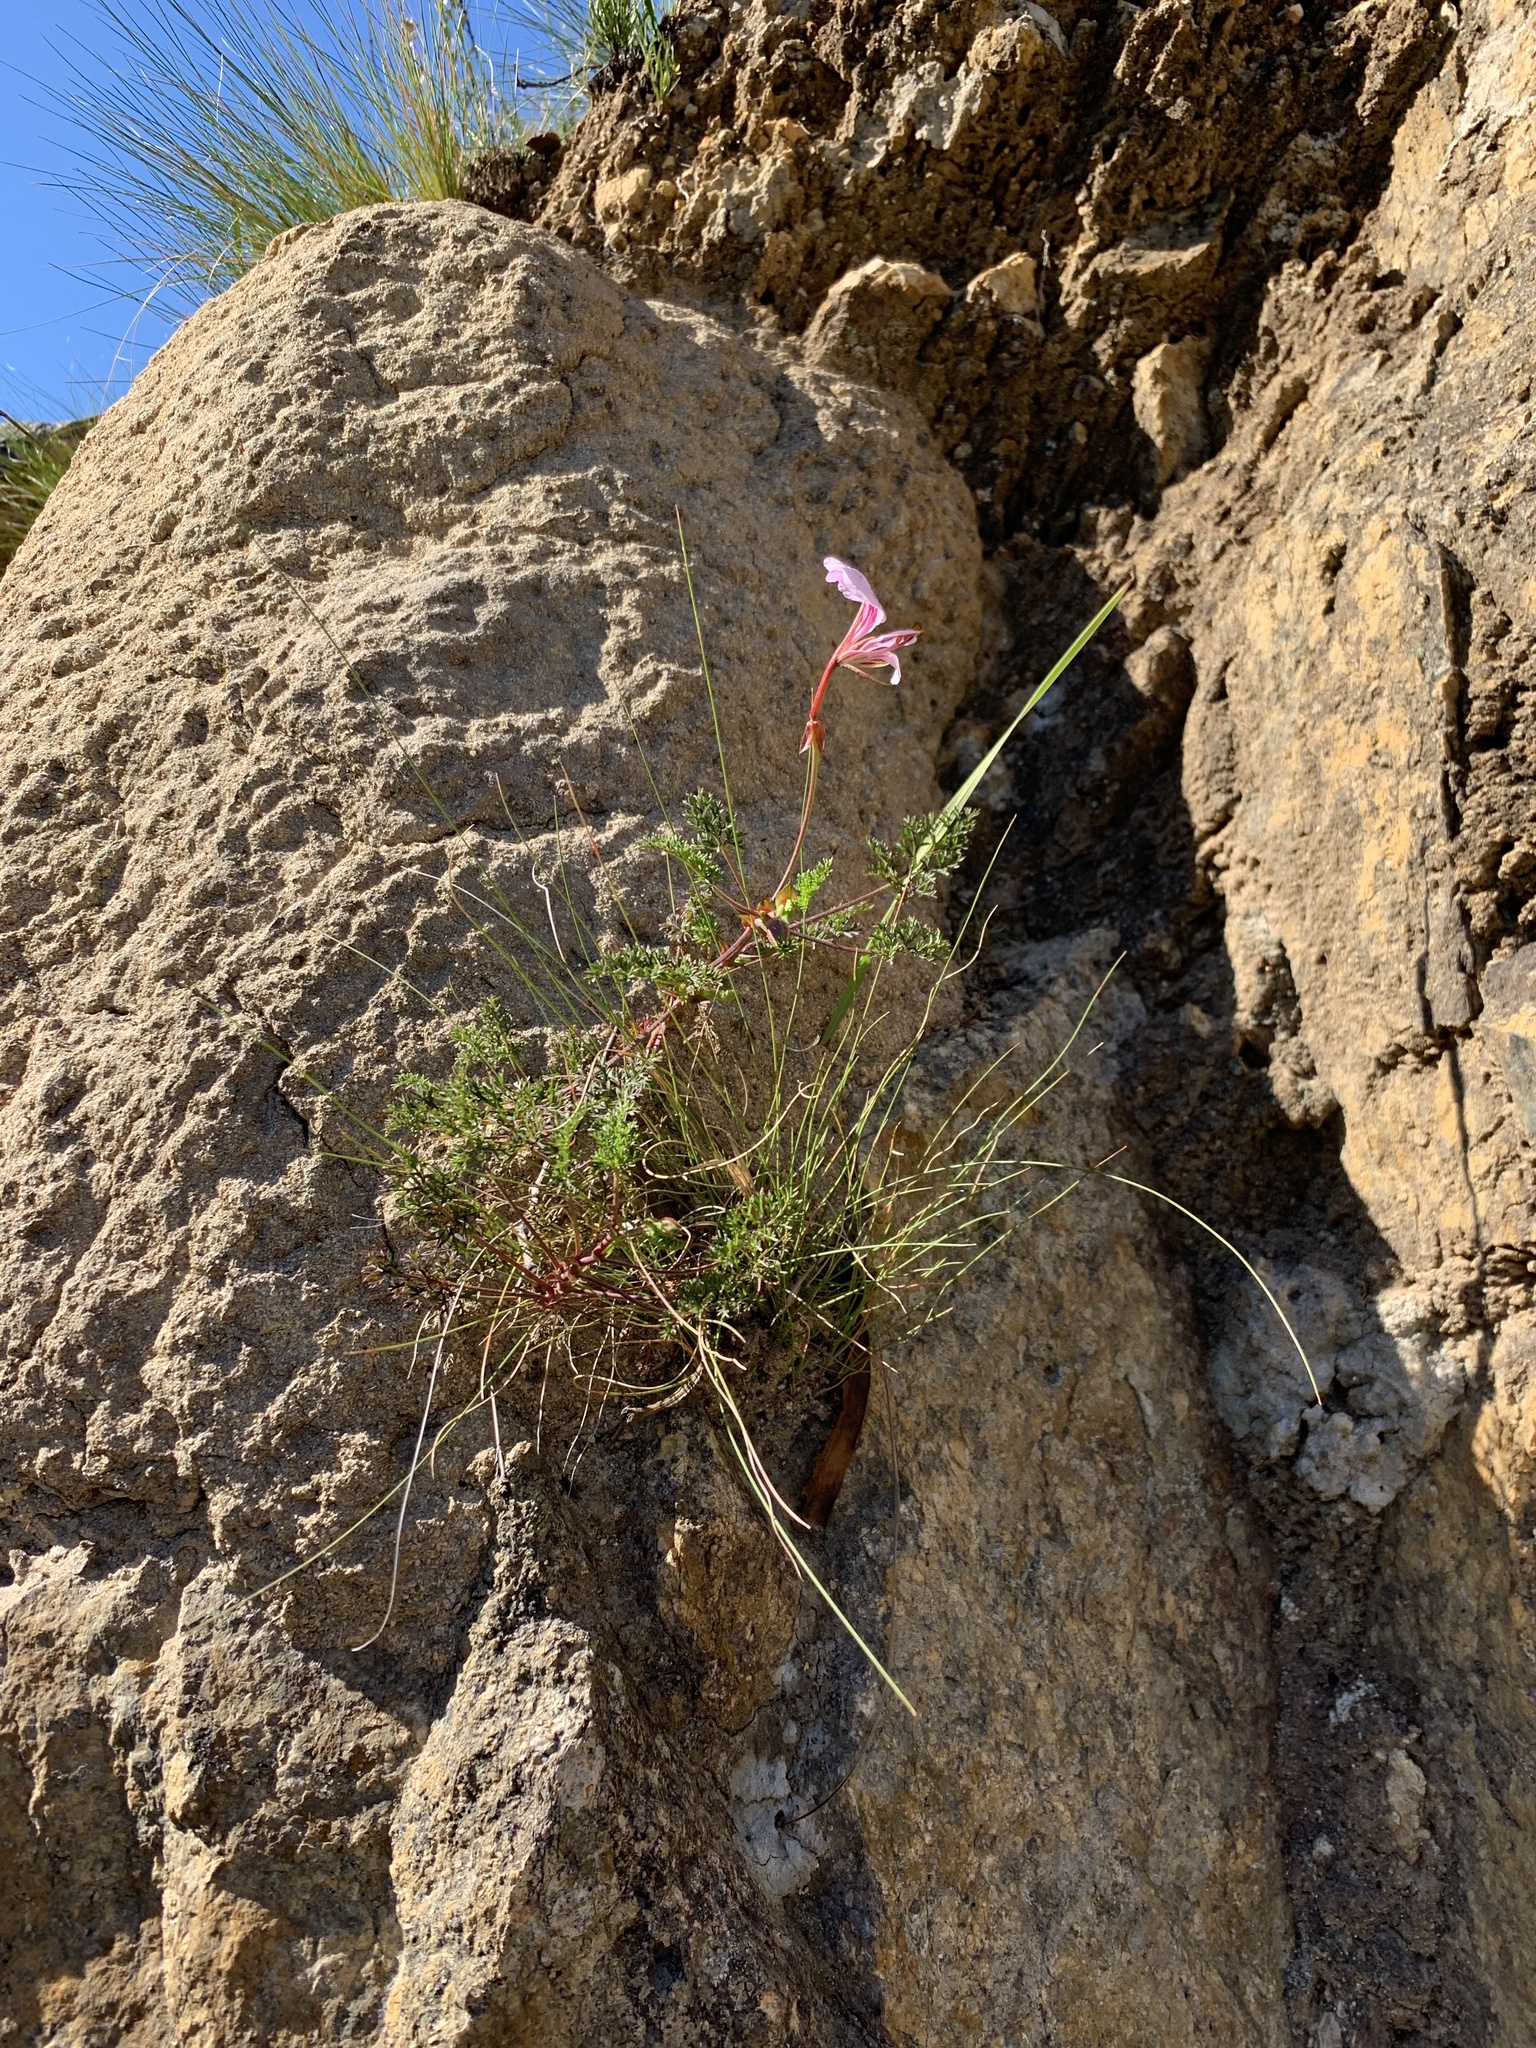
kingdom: Plantae
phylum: Tracheophyta
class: Magnoliopsida
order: Geraniales
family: Geraniaceae
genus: Pelargonium
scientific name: Pelargonium myrrhifolium
